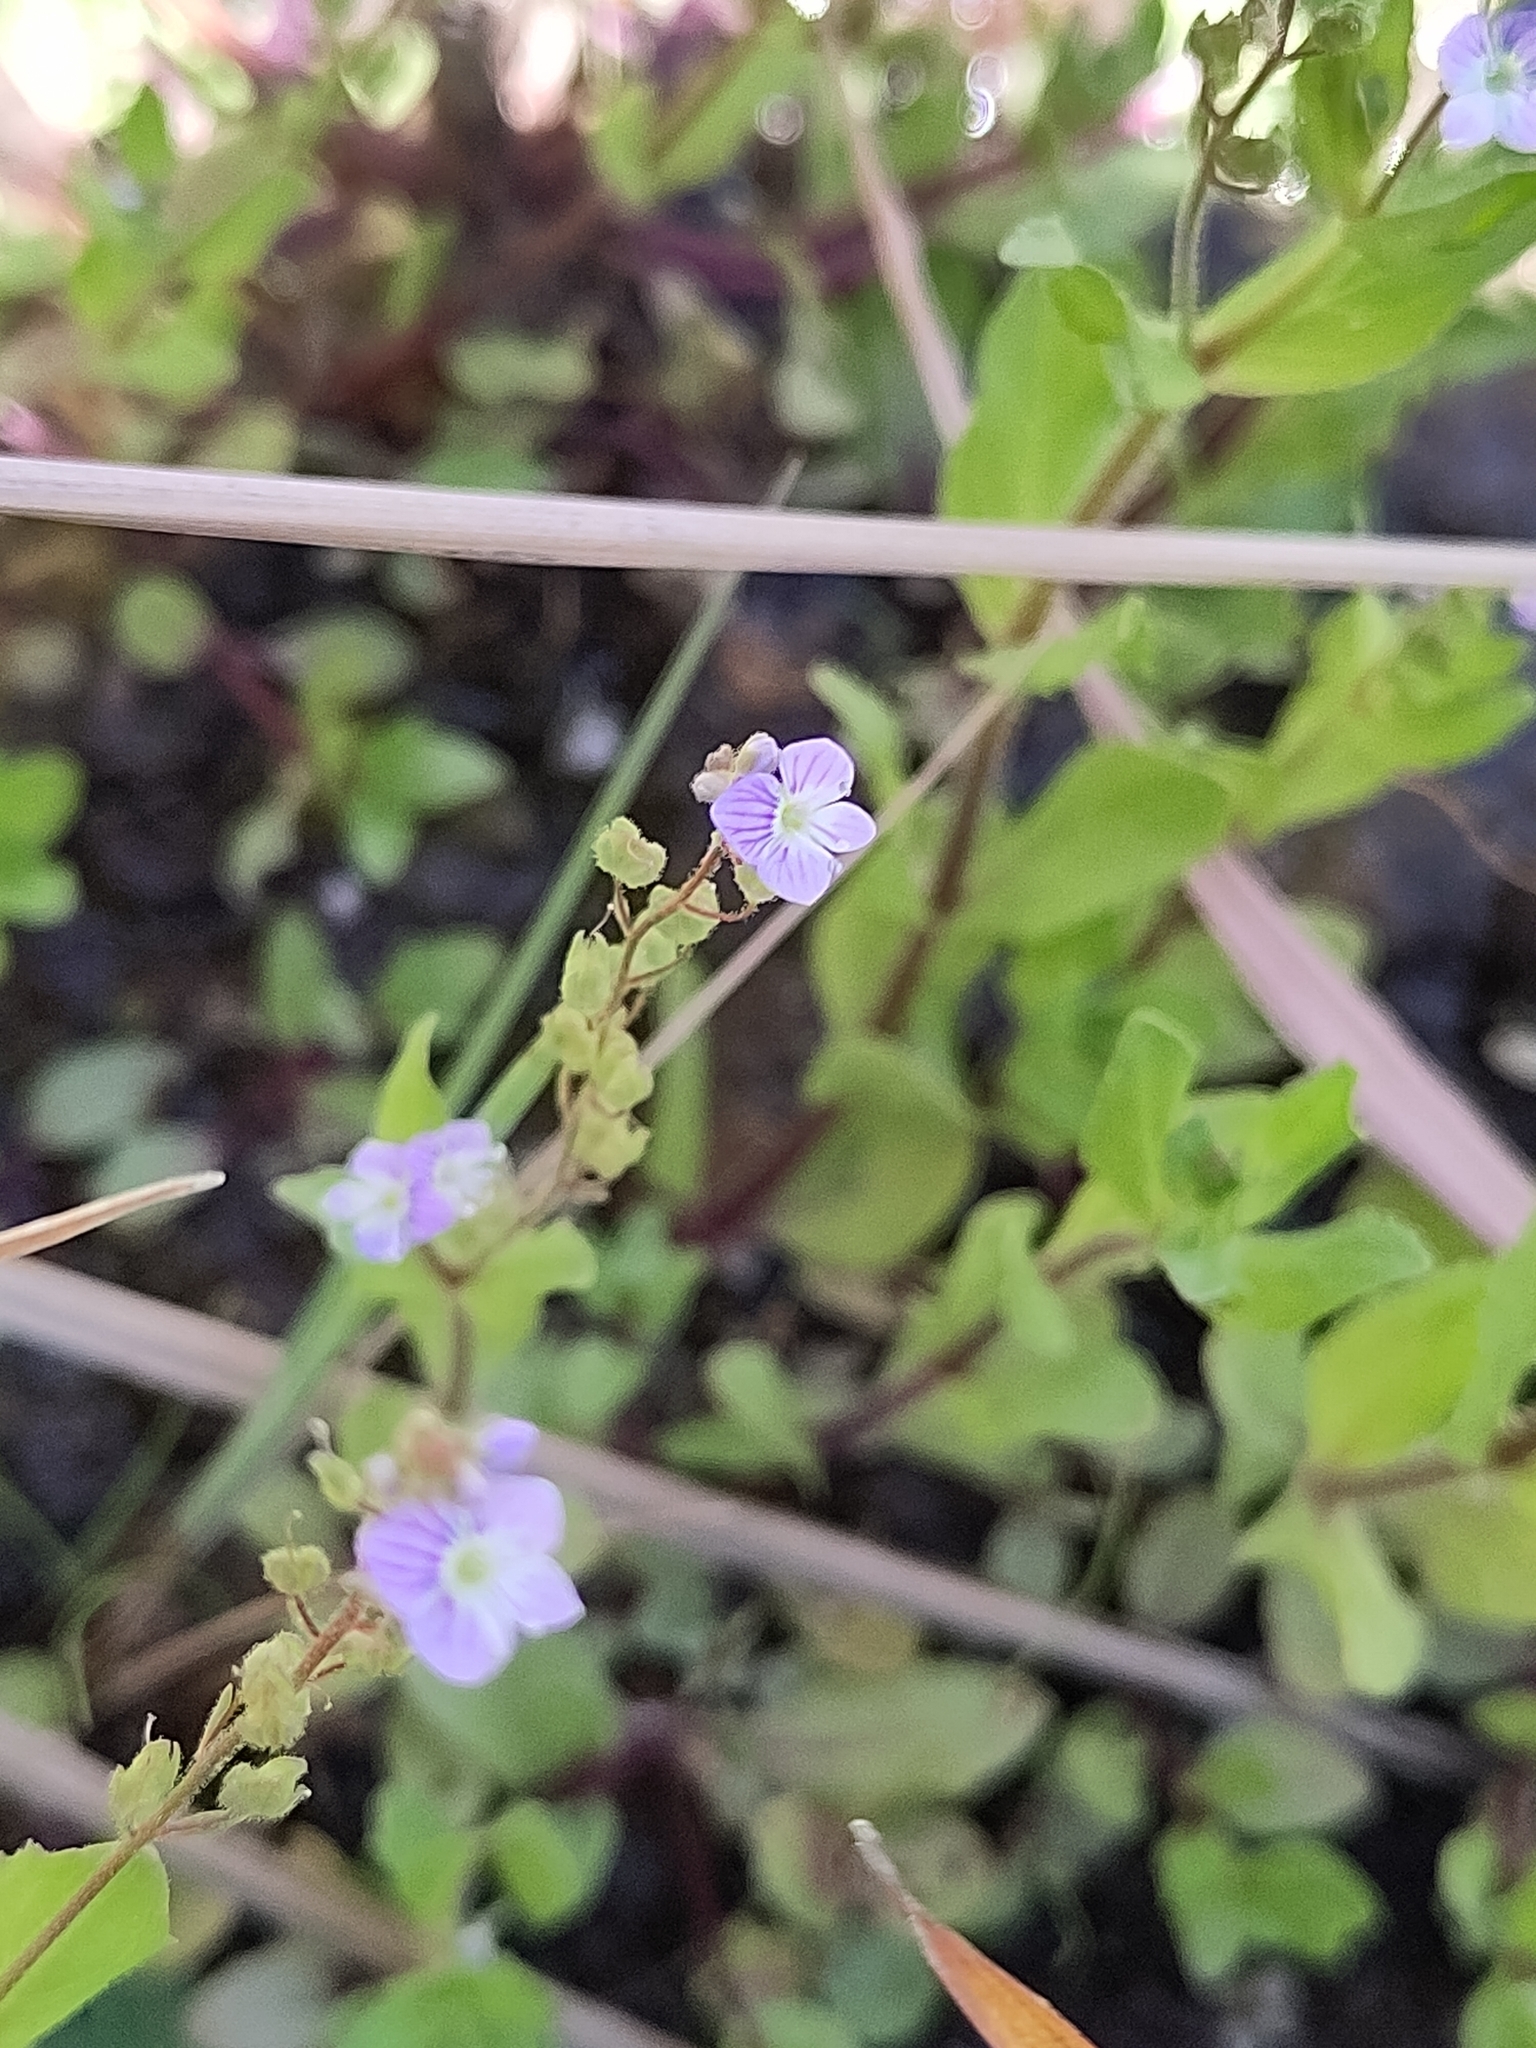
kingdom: Plantae
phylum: Tracheophyta
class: Magnoliopsida
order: Lamiales
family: Plantaginaceae
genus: Veronica
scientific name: Veronica anagallis-aquatica
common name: Water speedwell
